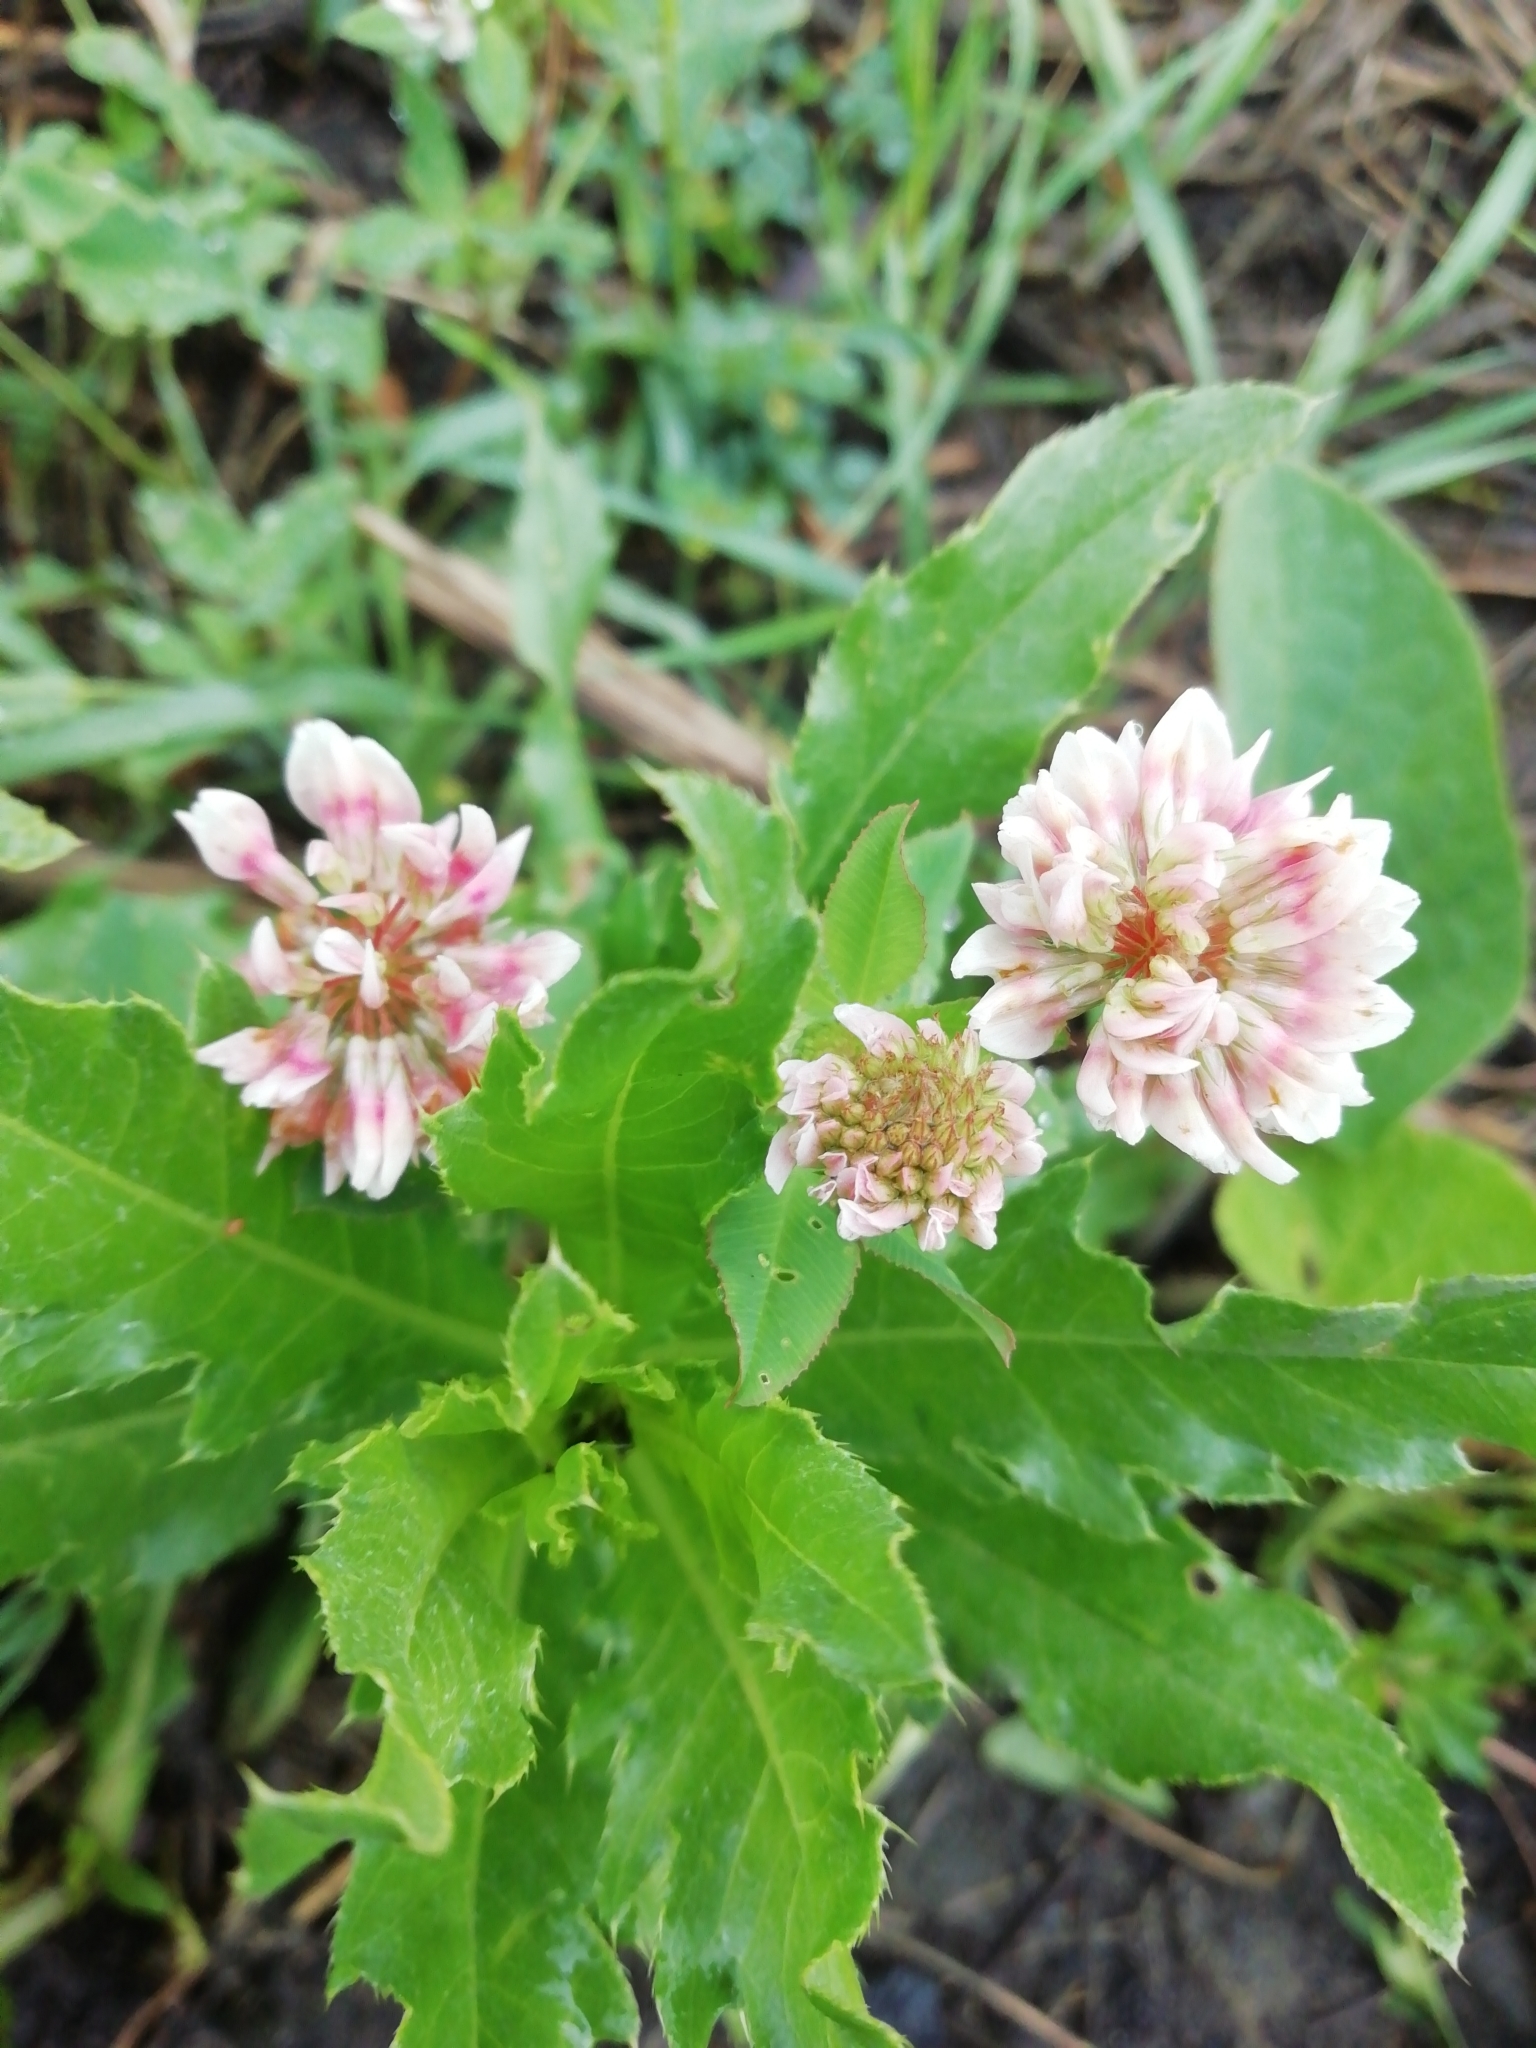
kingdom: Plantae
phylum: Tracheophyta
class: Magnoliopsida
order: Fabales
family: Fabaceae
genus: Trifolium
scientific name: Trifolium hybridum
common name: Alsike clover
